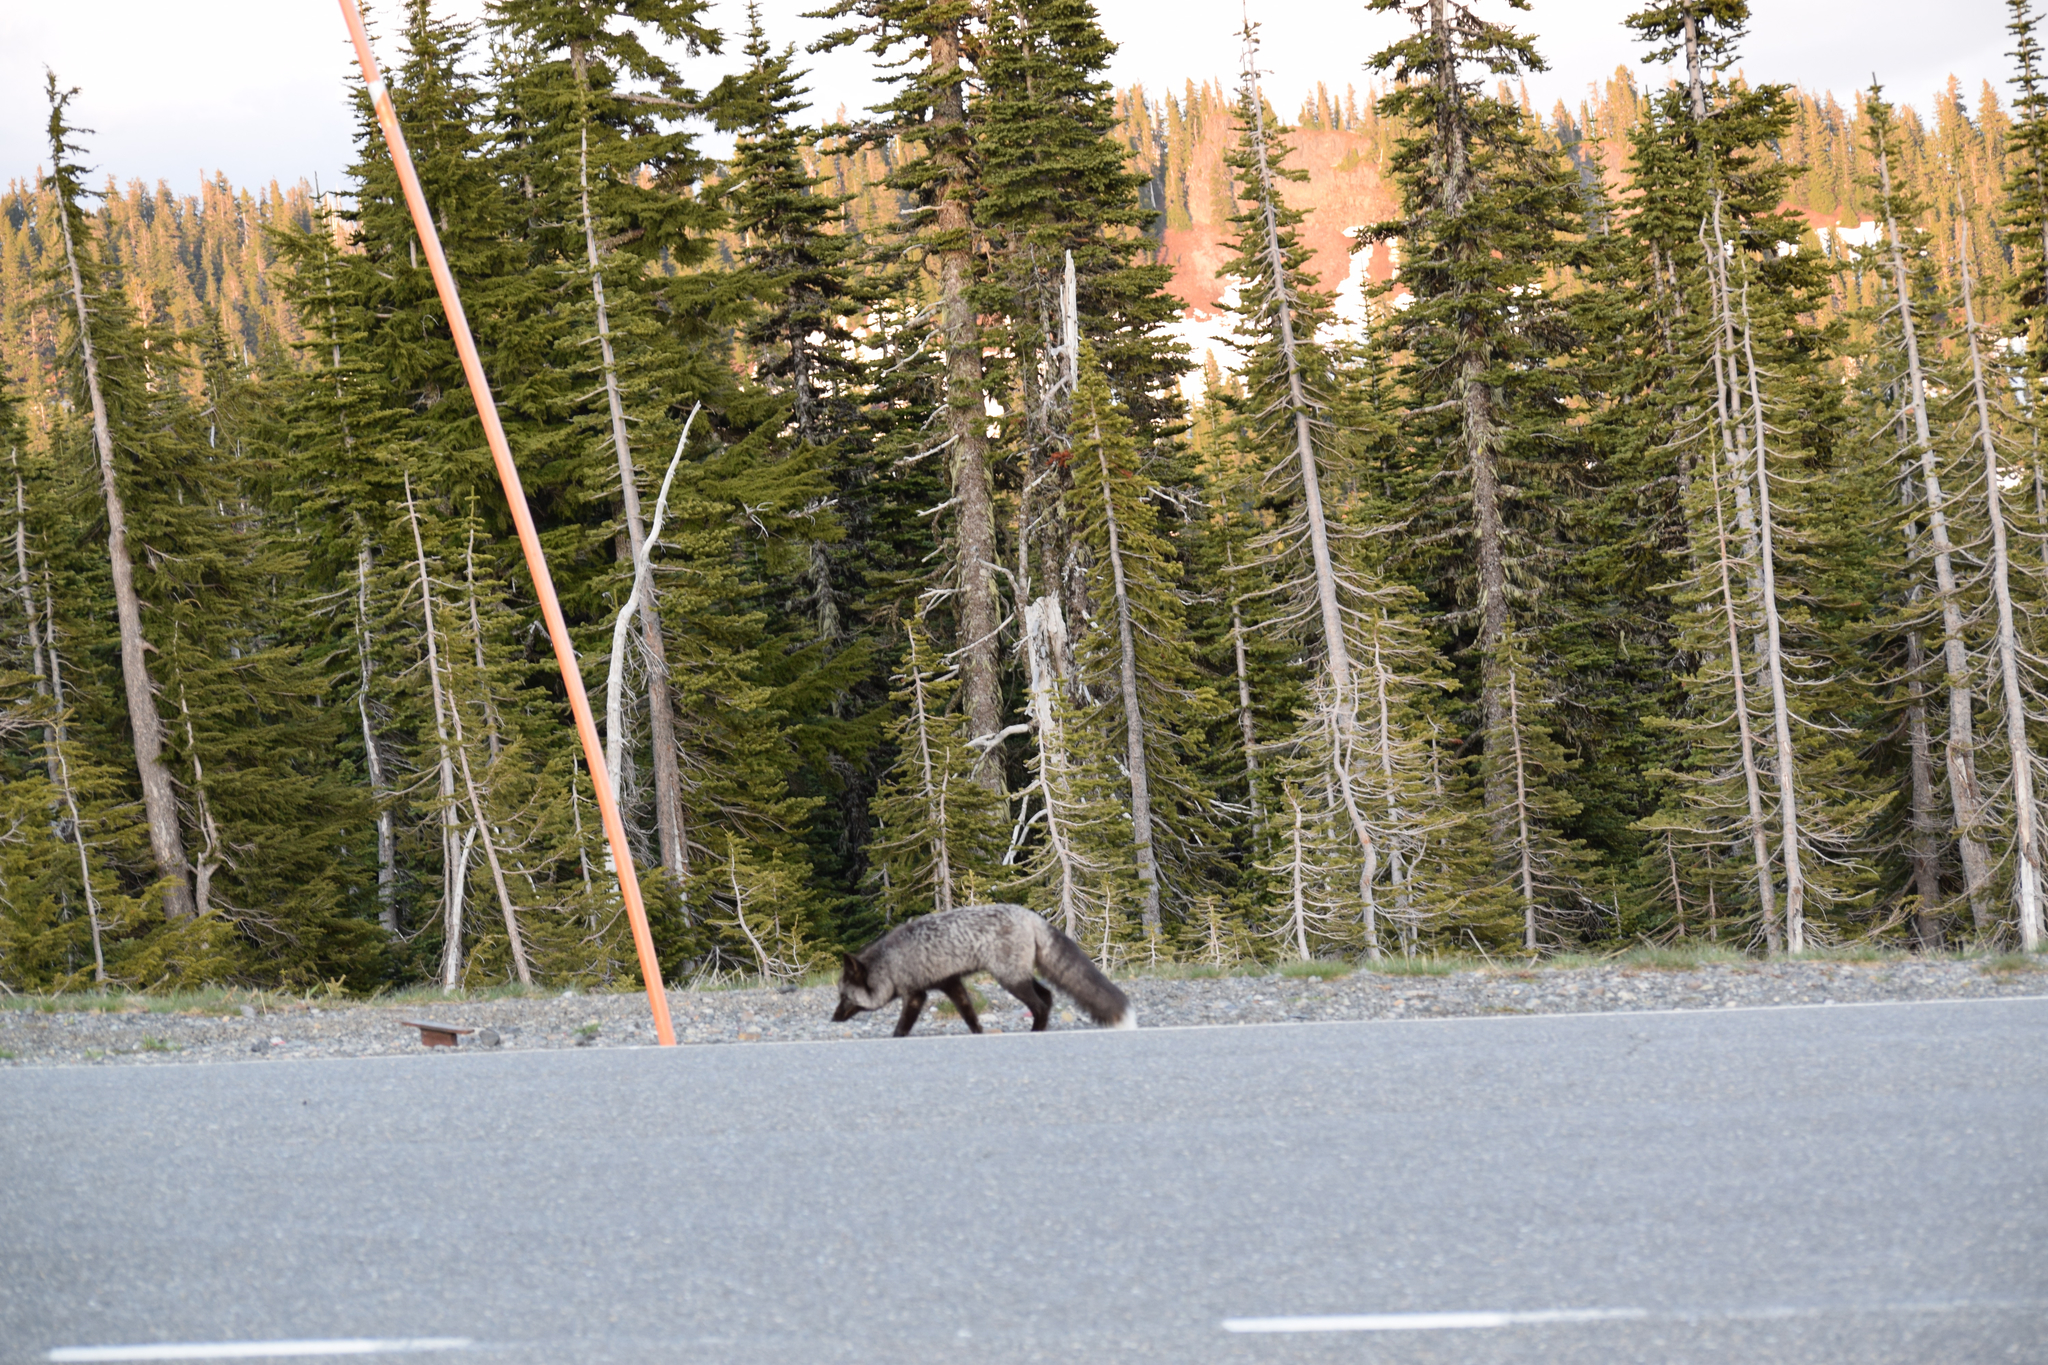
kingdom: Animalia
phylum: Chordata
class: Mammalia
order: Carnivora
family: Canidae
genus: Vulpes
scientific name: Vulpes vulpes
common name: Red fox
